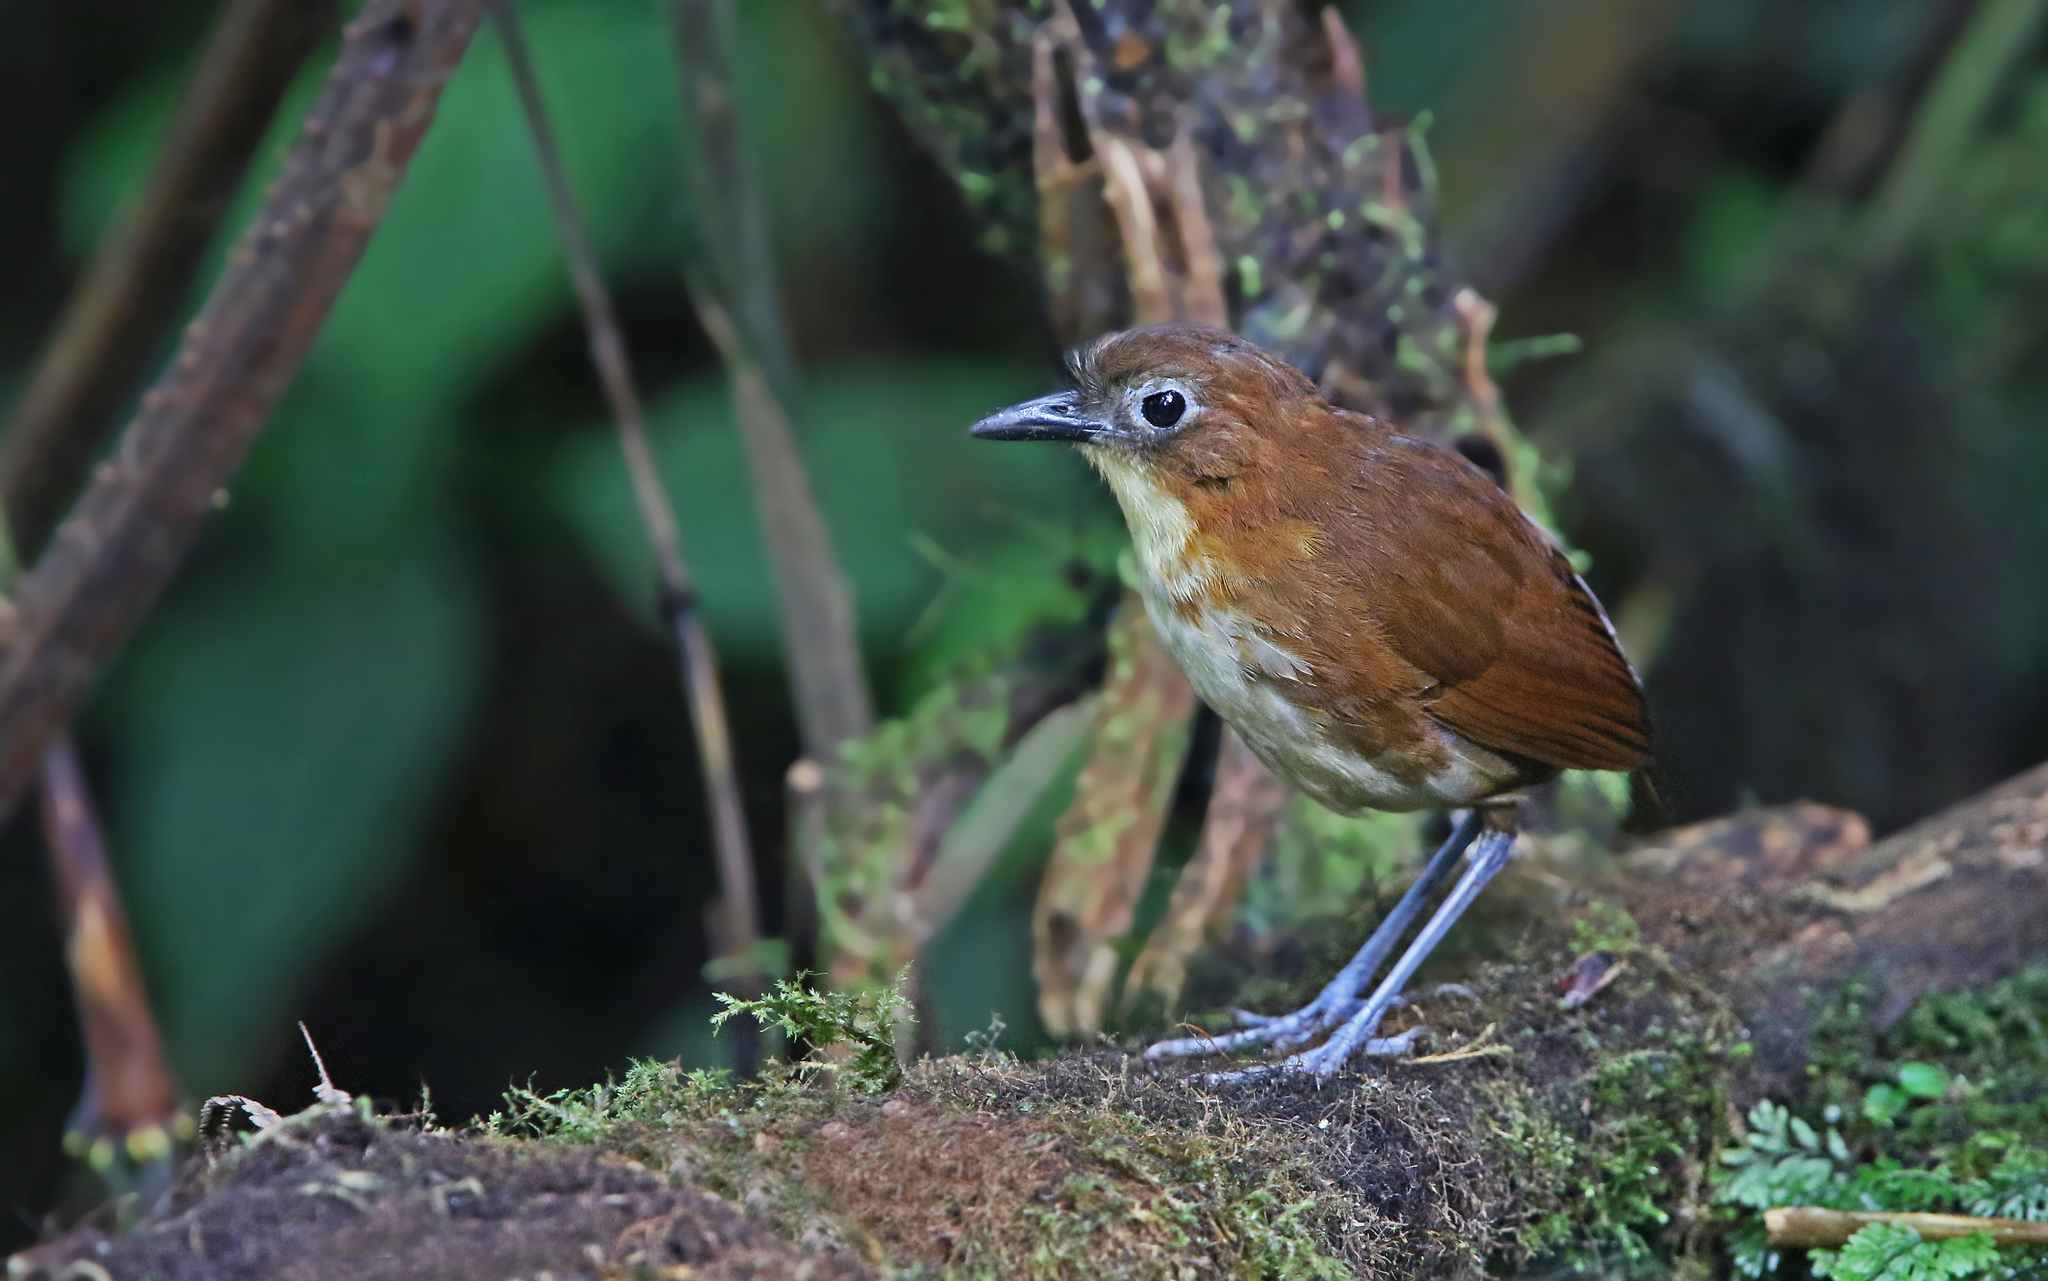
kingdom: Animalia
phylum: Chordata
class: Aves
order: Passeriformes
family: Grallariidae
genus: Grallaria
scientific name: Grallaria flavotincta
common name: Yellow-breasted antpitta
